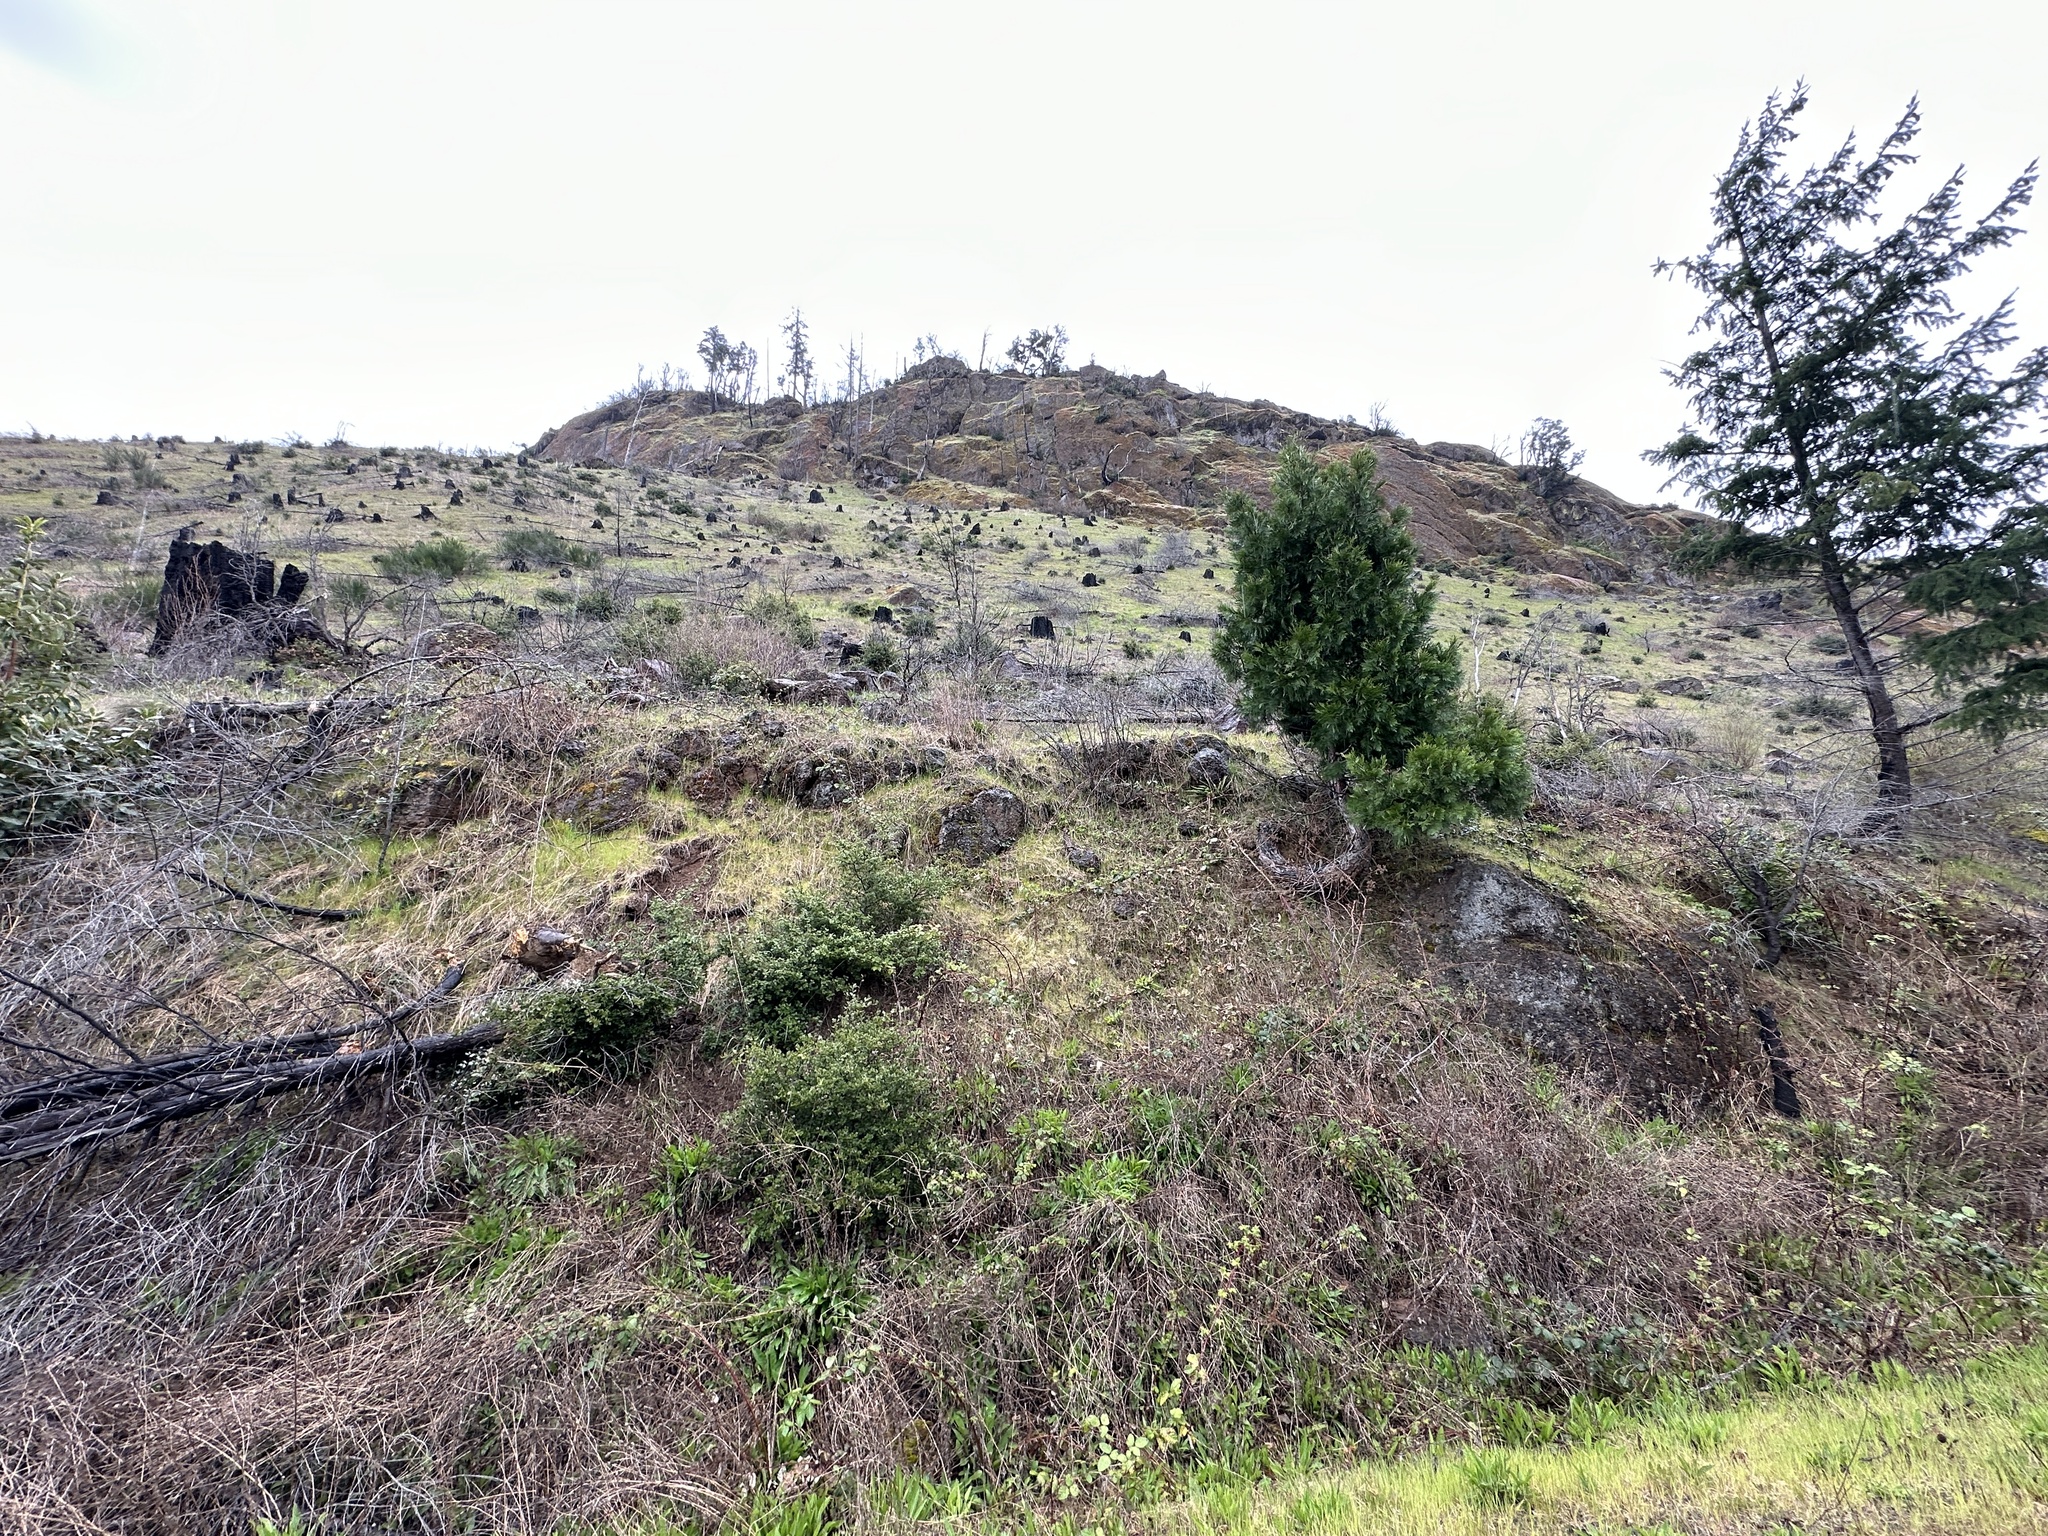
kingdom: Plantae
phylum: Tracheophyta
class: Liliopsida
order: Liliales
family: Liliaceae
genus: Erythronium
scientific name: Erythronium oregonum
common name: Giant adder's-tongue
